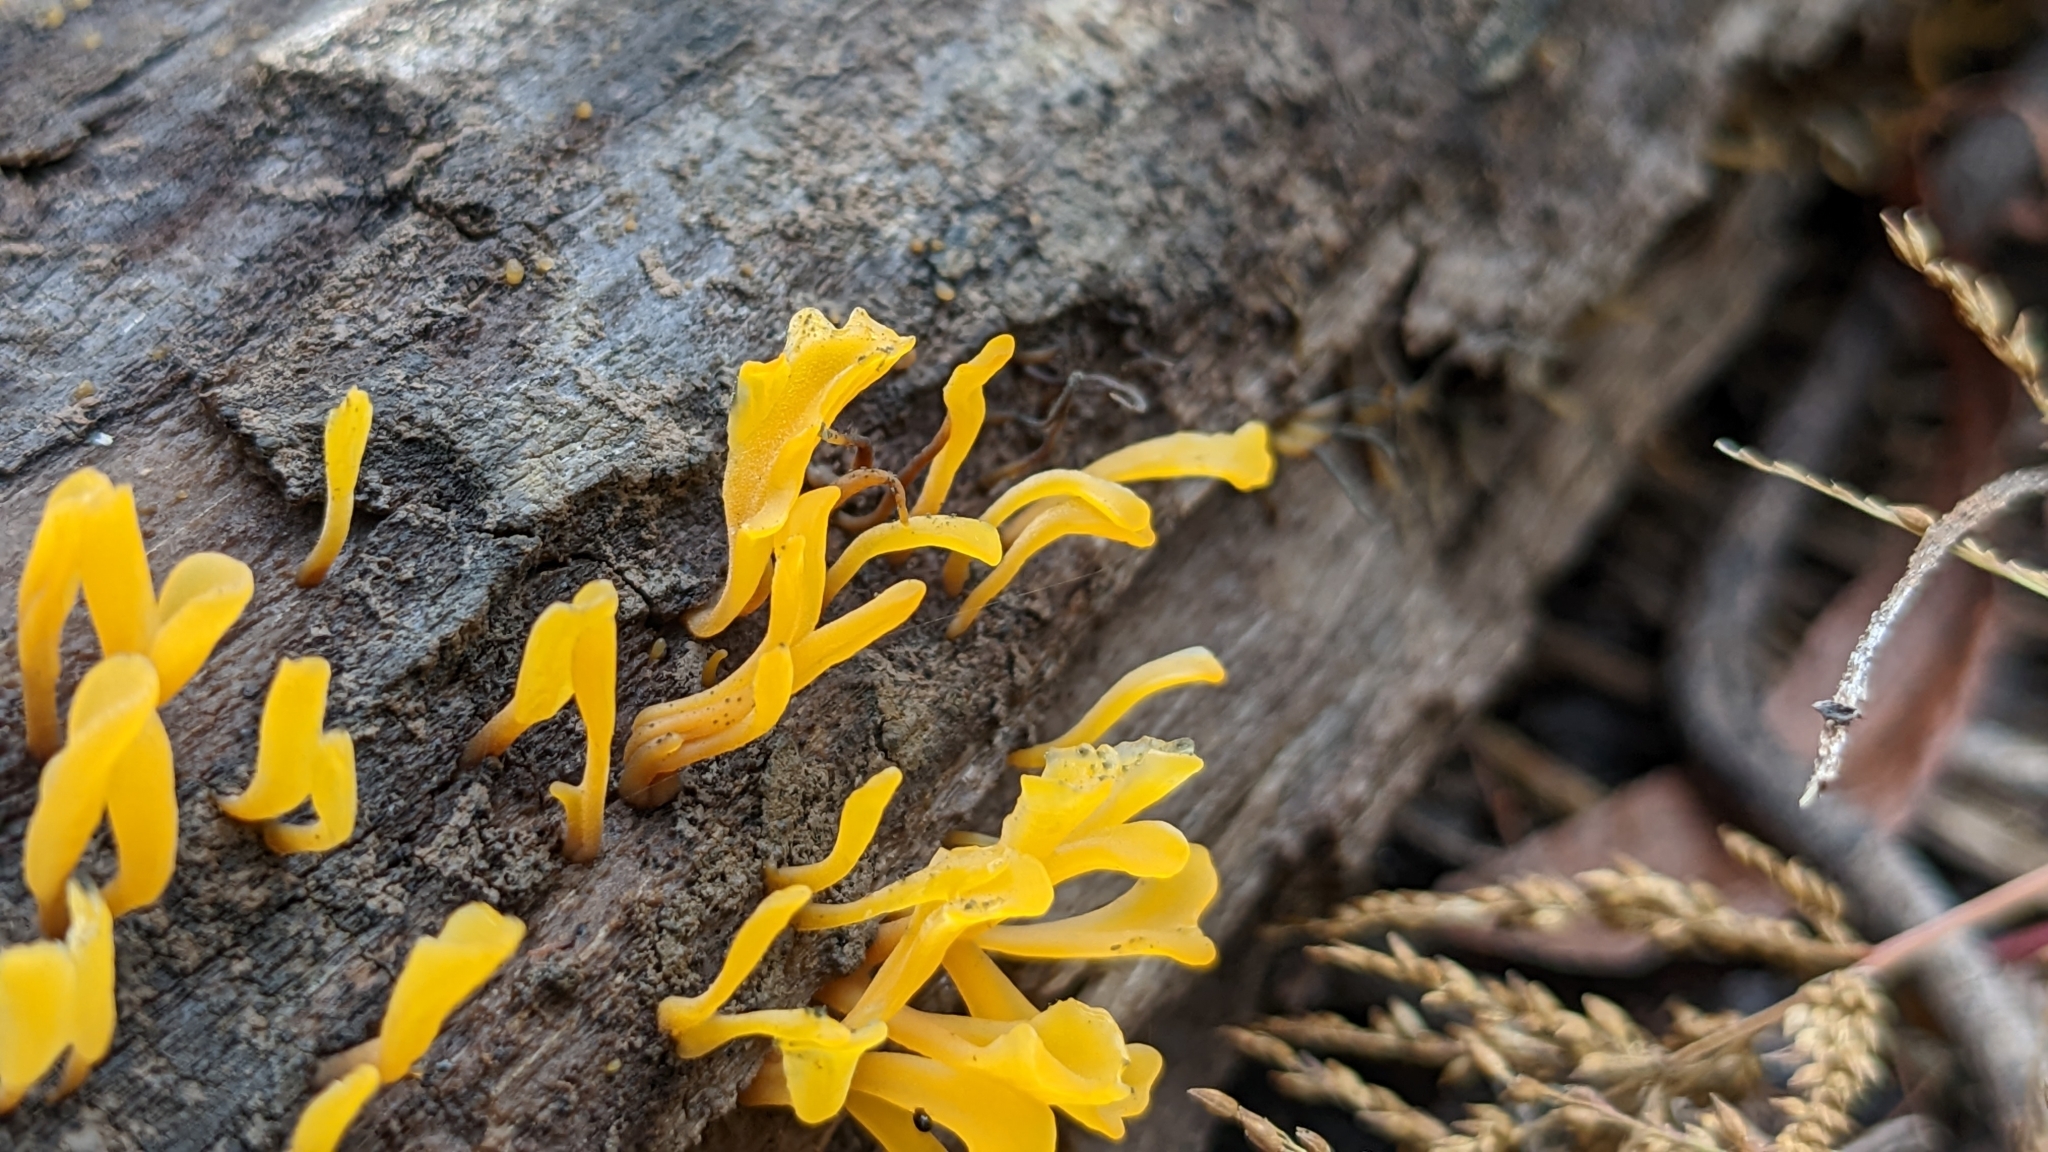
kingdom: Fungi
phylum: Basidiomycota
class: Dacrymycetes
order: Dacrymycetales
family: Dacrymycetaceae
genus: Dacrymyces
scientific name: Dacrymyces spathularius
